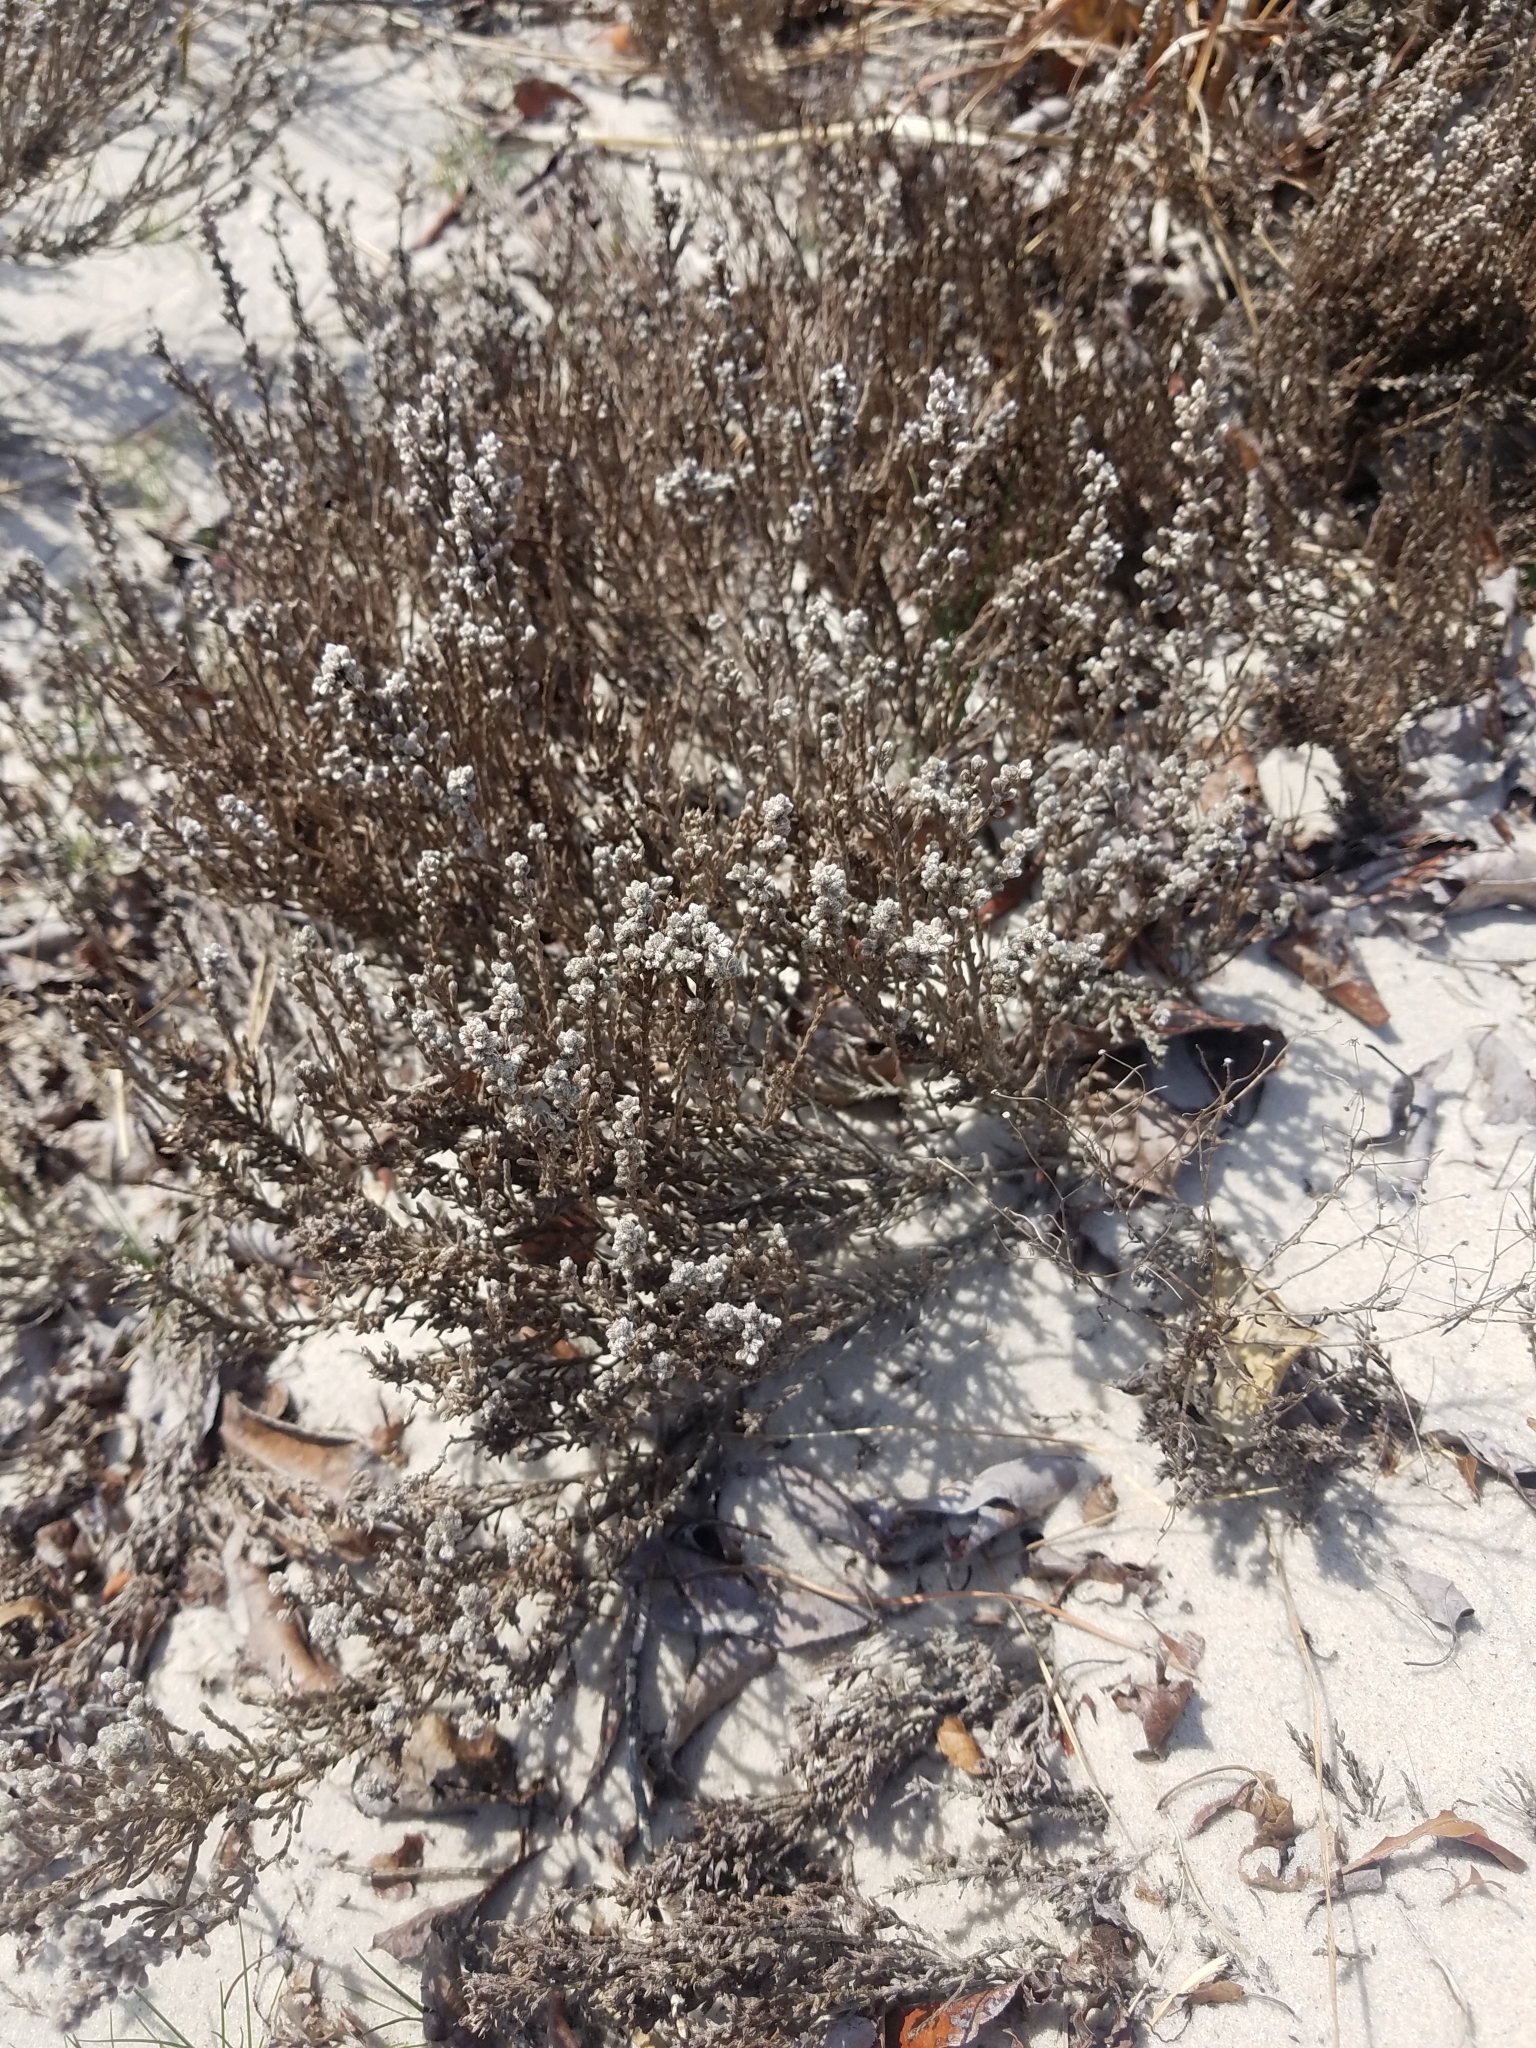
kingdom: Plantae
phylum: Tracheophyta
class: Magnoliopsida
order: Malvales
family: Cistaceae
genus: Hudsonia
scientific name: Hudsonia tomentosa
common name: Beach-heath
